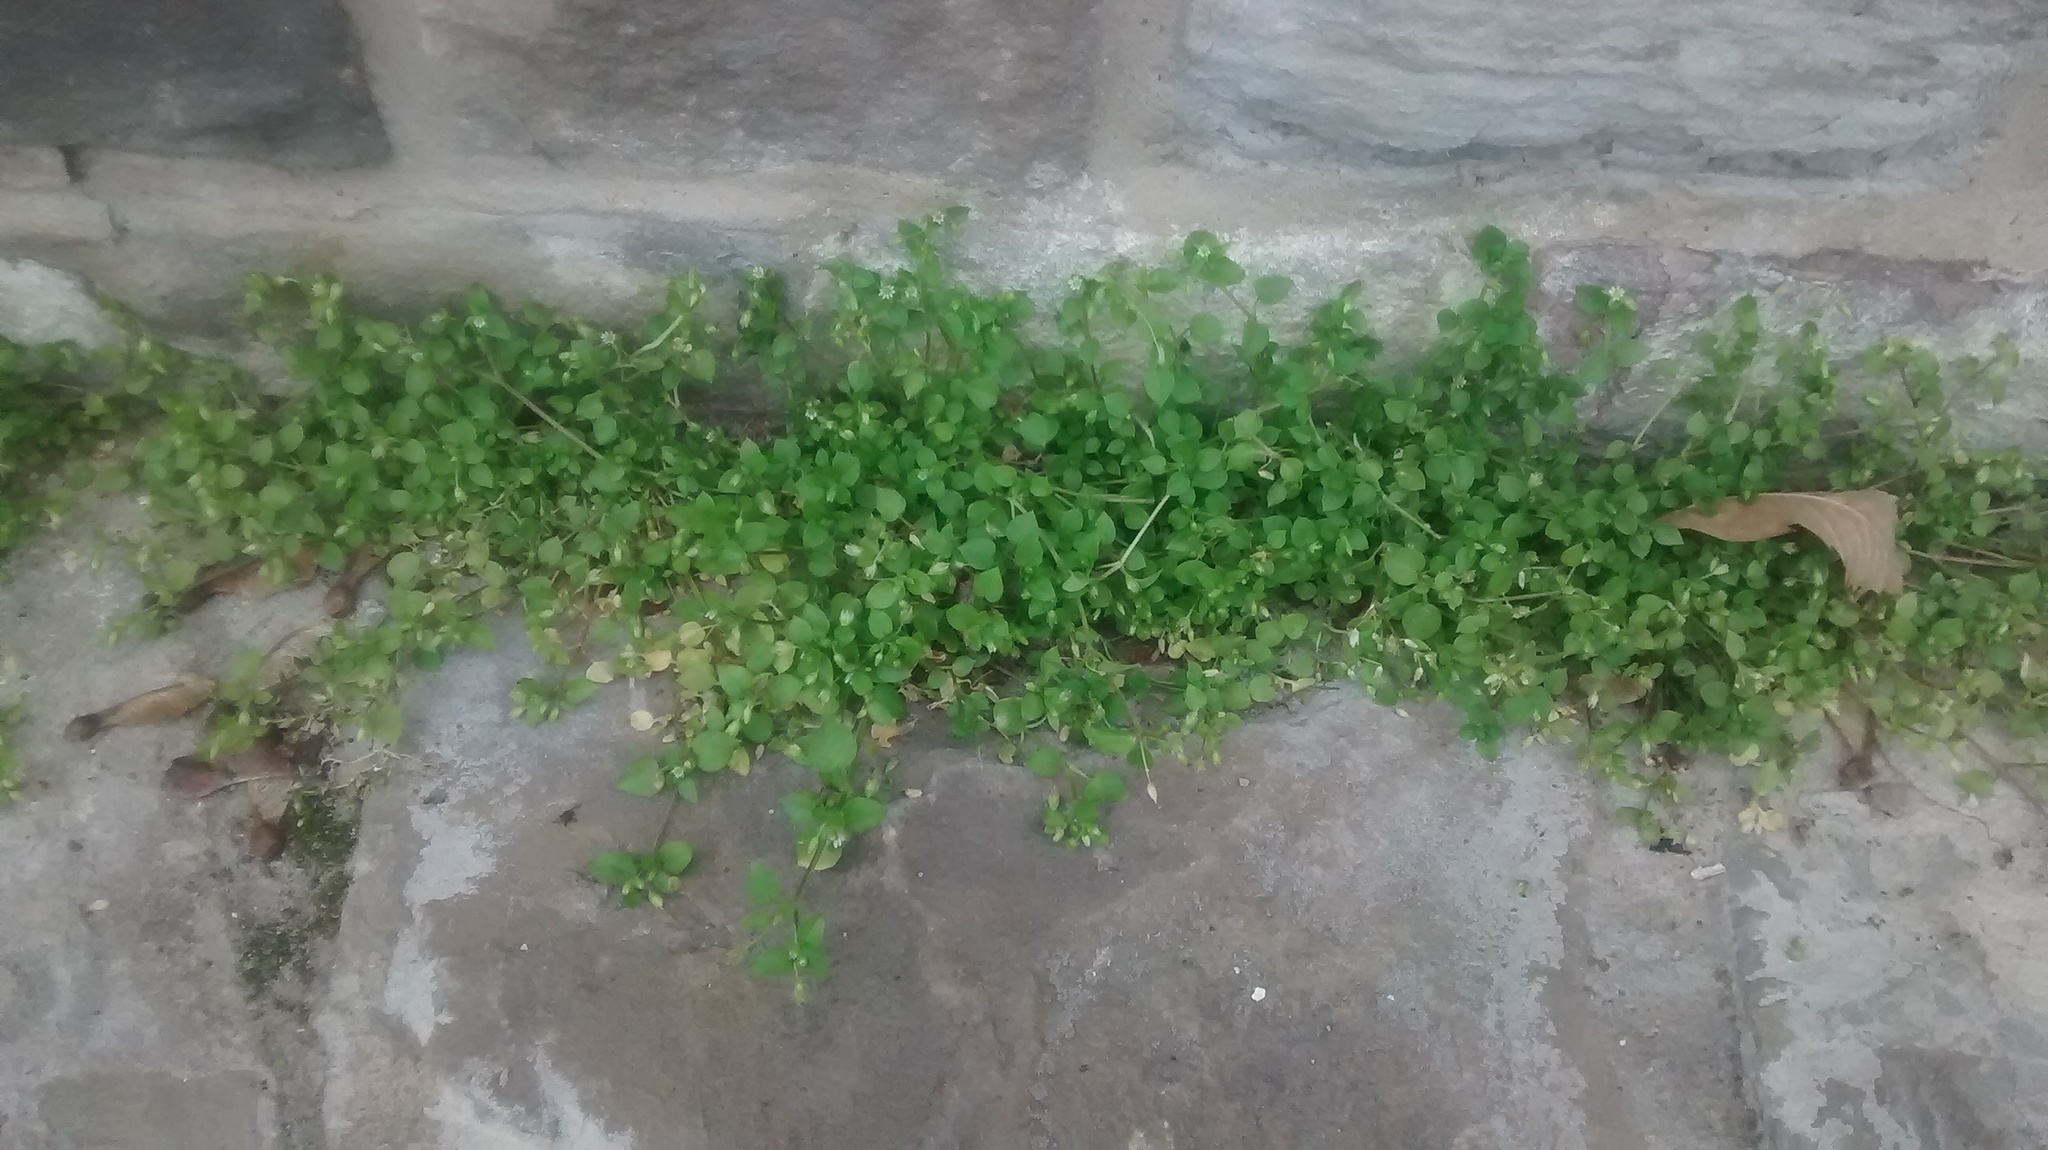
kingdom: Plantae
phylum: Tracheophyta
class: Magnoliopsida
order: Caryophyllales
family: Caryophyllaceae
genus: Stellaria
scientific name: Stellaria media
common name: Common chickweed
